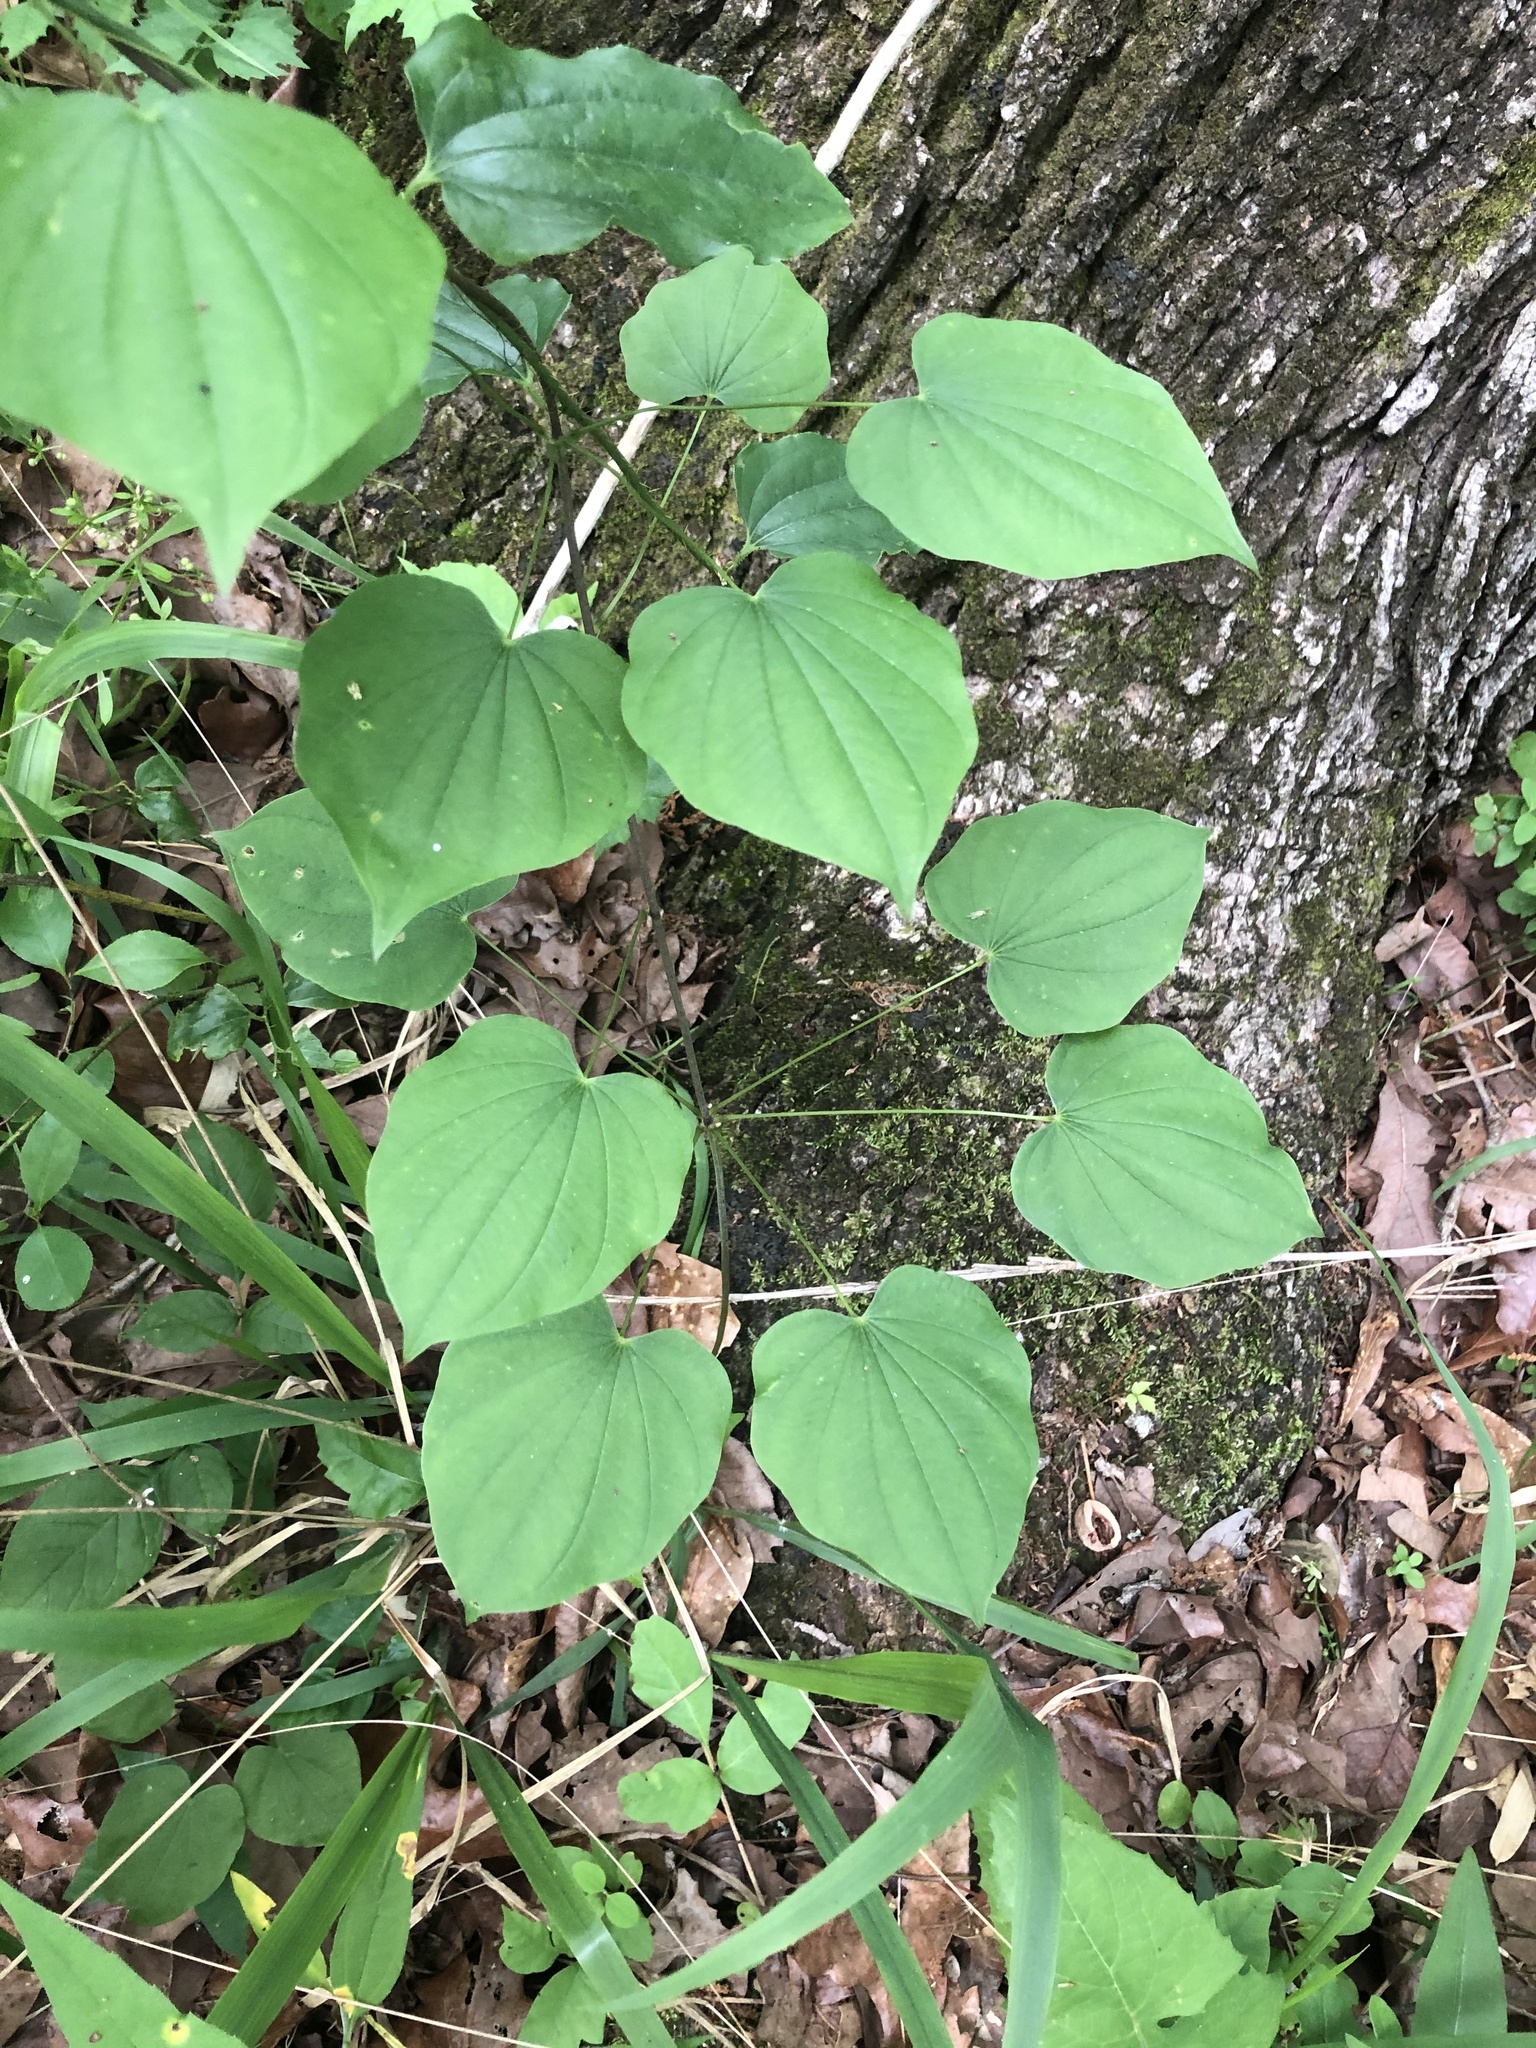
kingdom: Plantae
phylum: Tracheophyta
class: Liliopsida
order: Dioscoreales
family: Dioscoreaceae
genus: Dioscorea
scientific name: Dioscorea villosa
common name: Wild yam
